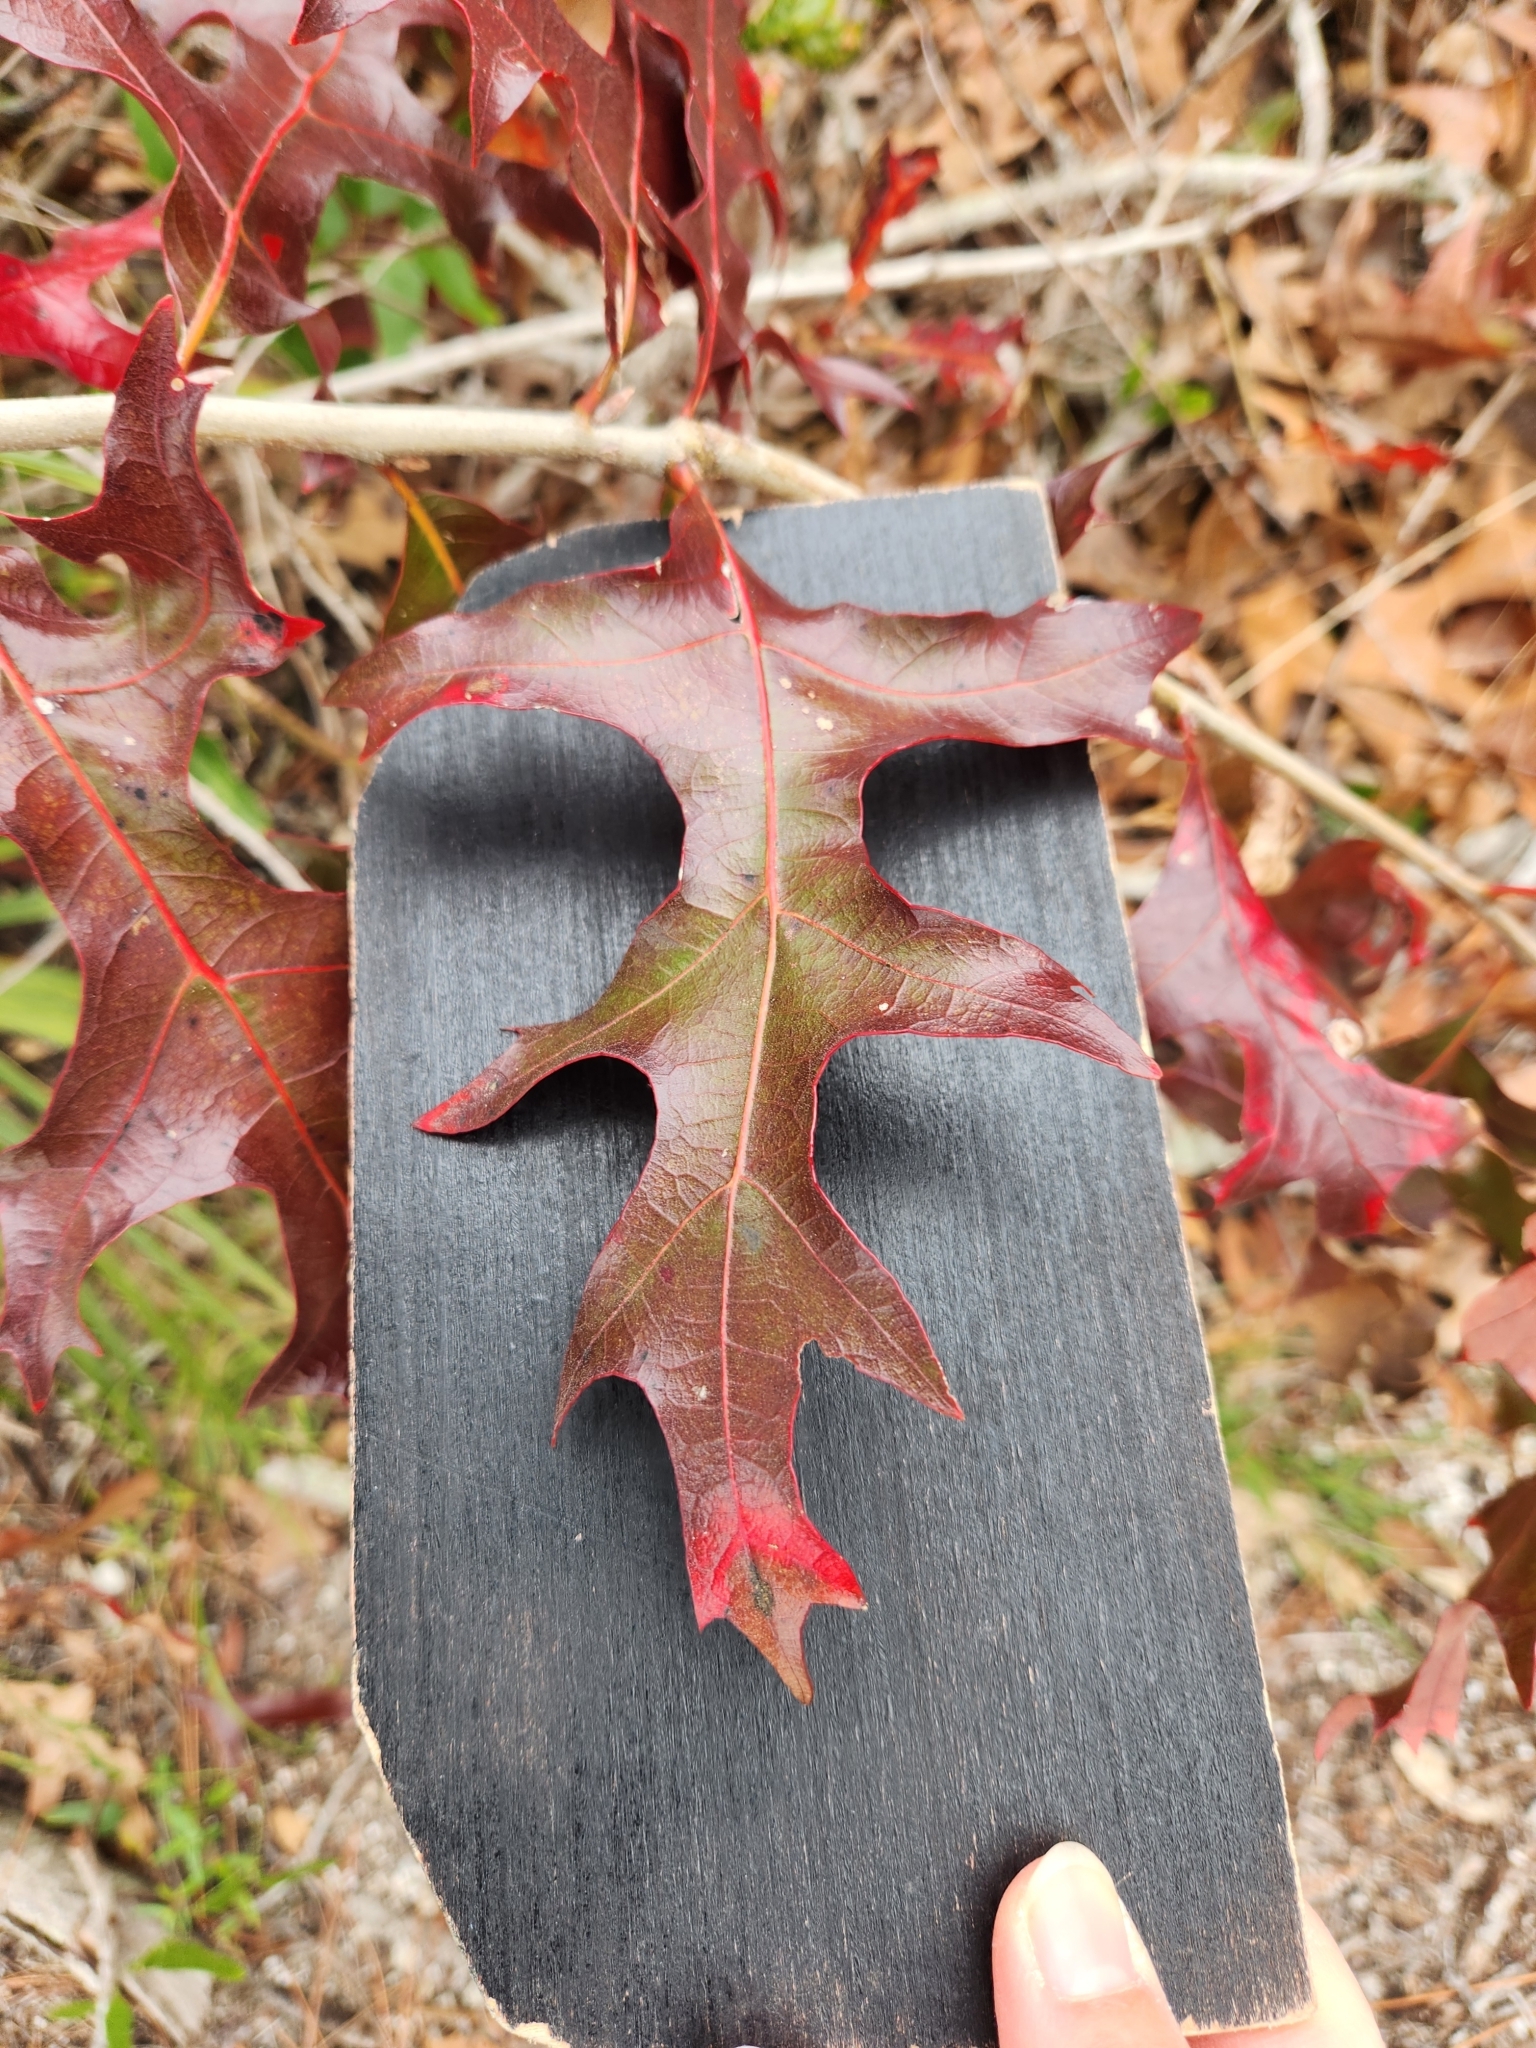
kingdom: Plantae
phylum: Tracheophyta
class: Magnoliopsida
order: Fagales
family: Fagaceae
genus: Quercus
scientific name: Quercus laevis
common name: Turkey oak
